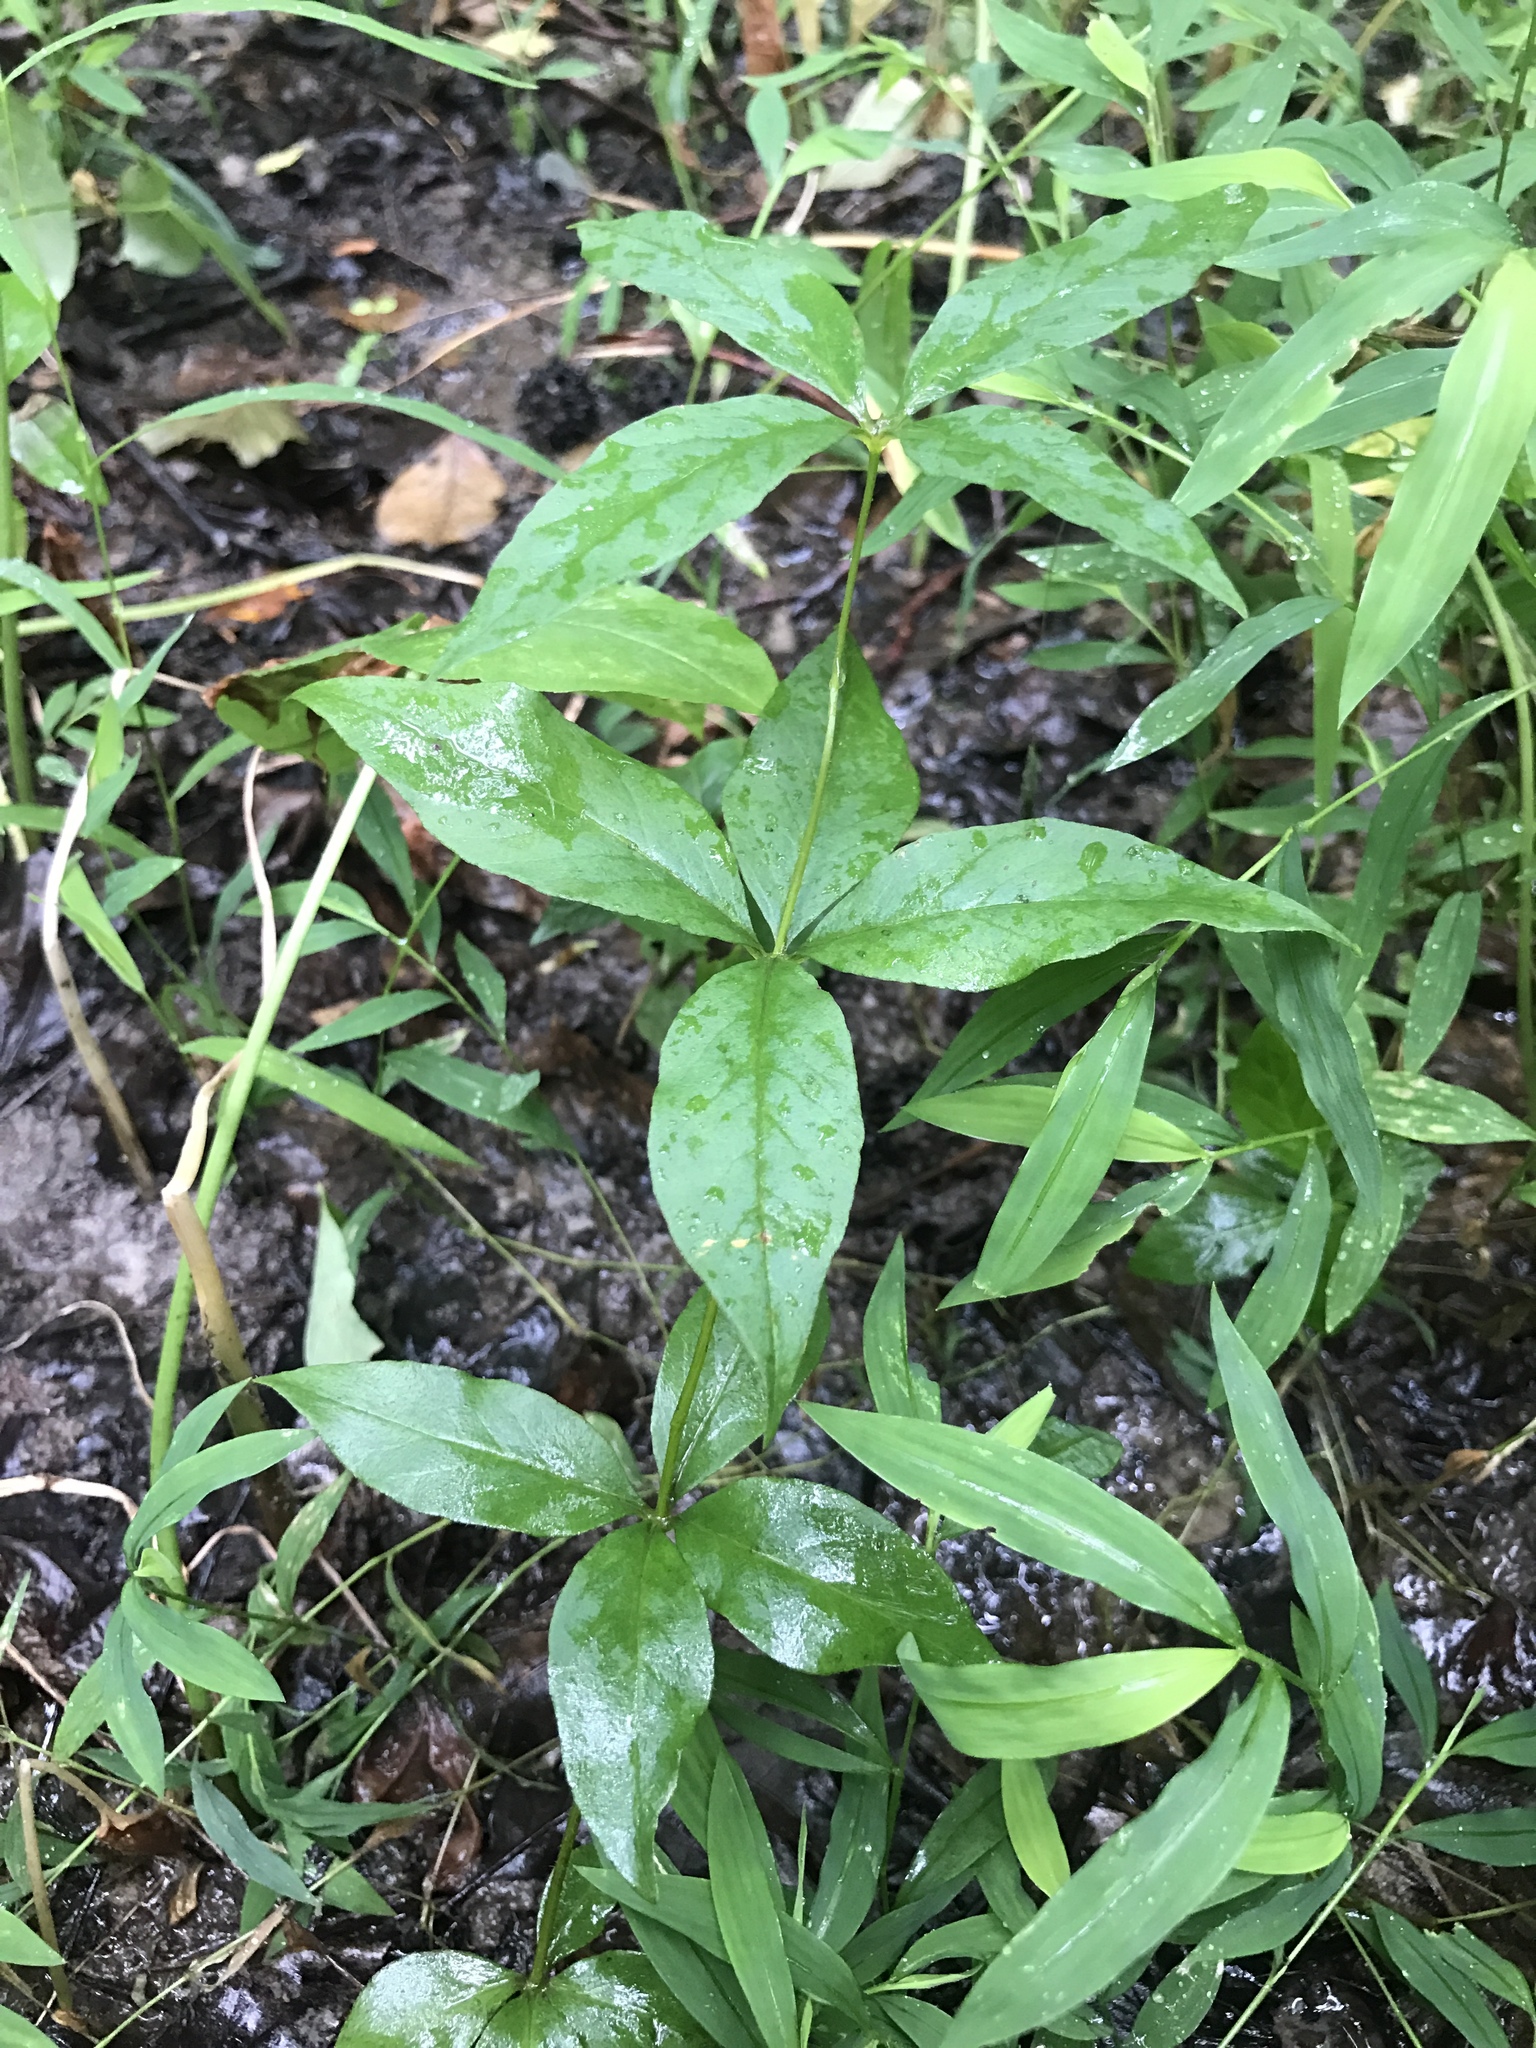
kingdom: Plantae
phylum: Tracheophyta
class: Magnoliopsida
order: Ericales
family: Primulaceae
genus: Lysimachia
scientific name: Lysimachia quadrifolia
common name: Whorled loosestrife
